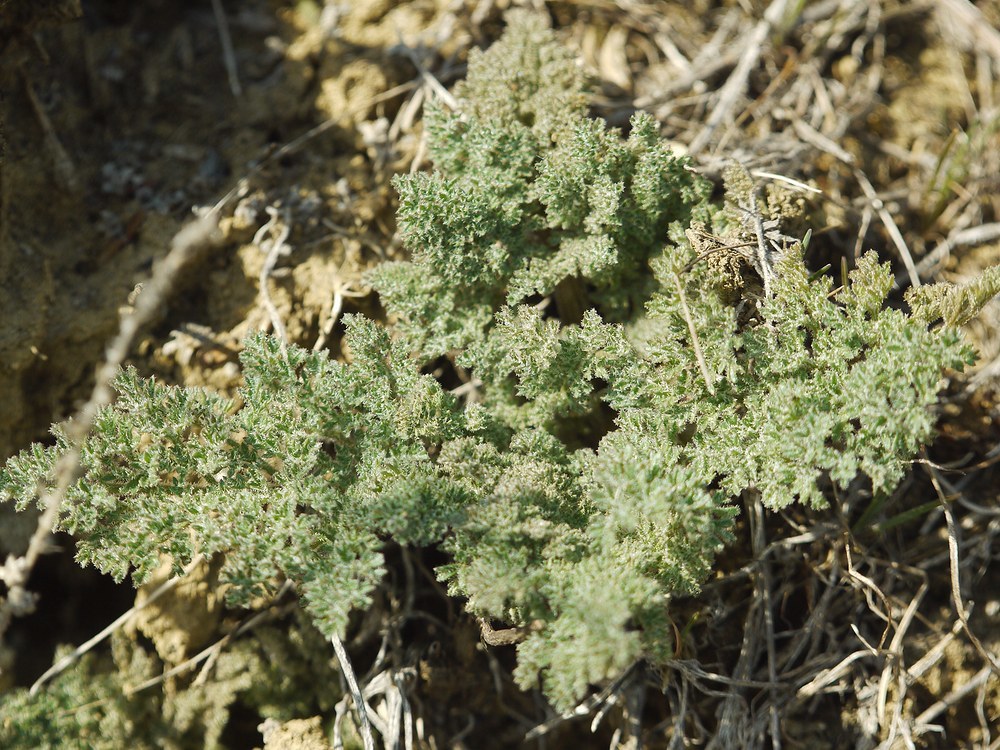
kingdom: Plantae
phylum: Tracheophyta
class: Magnoliopsida
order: Apiales
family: Apiaceae
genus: Ferula
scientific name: Ferula caspica
